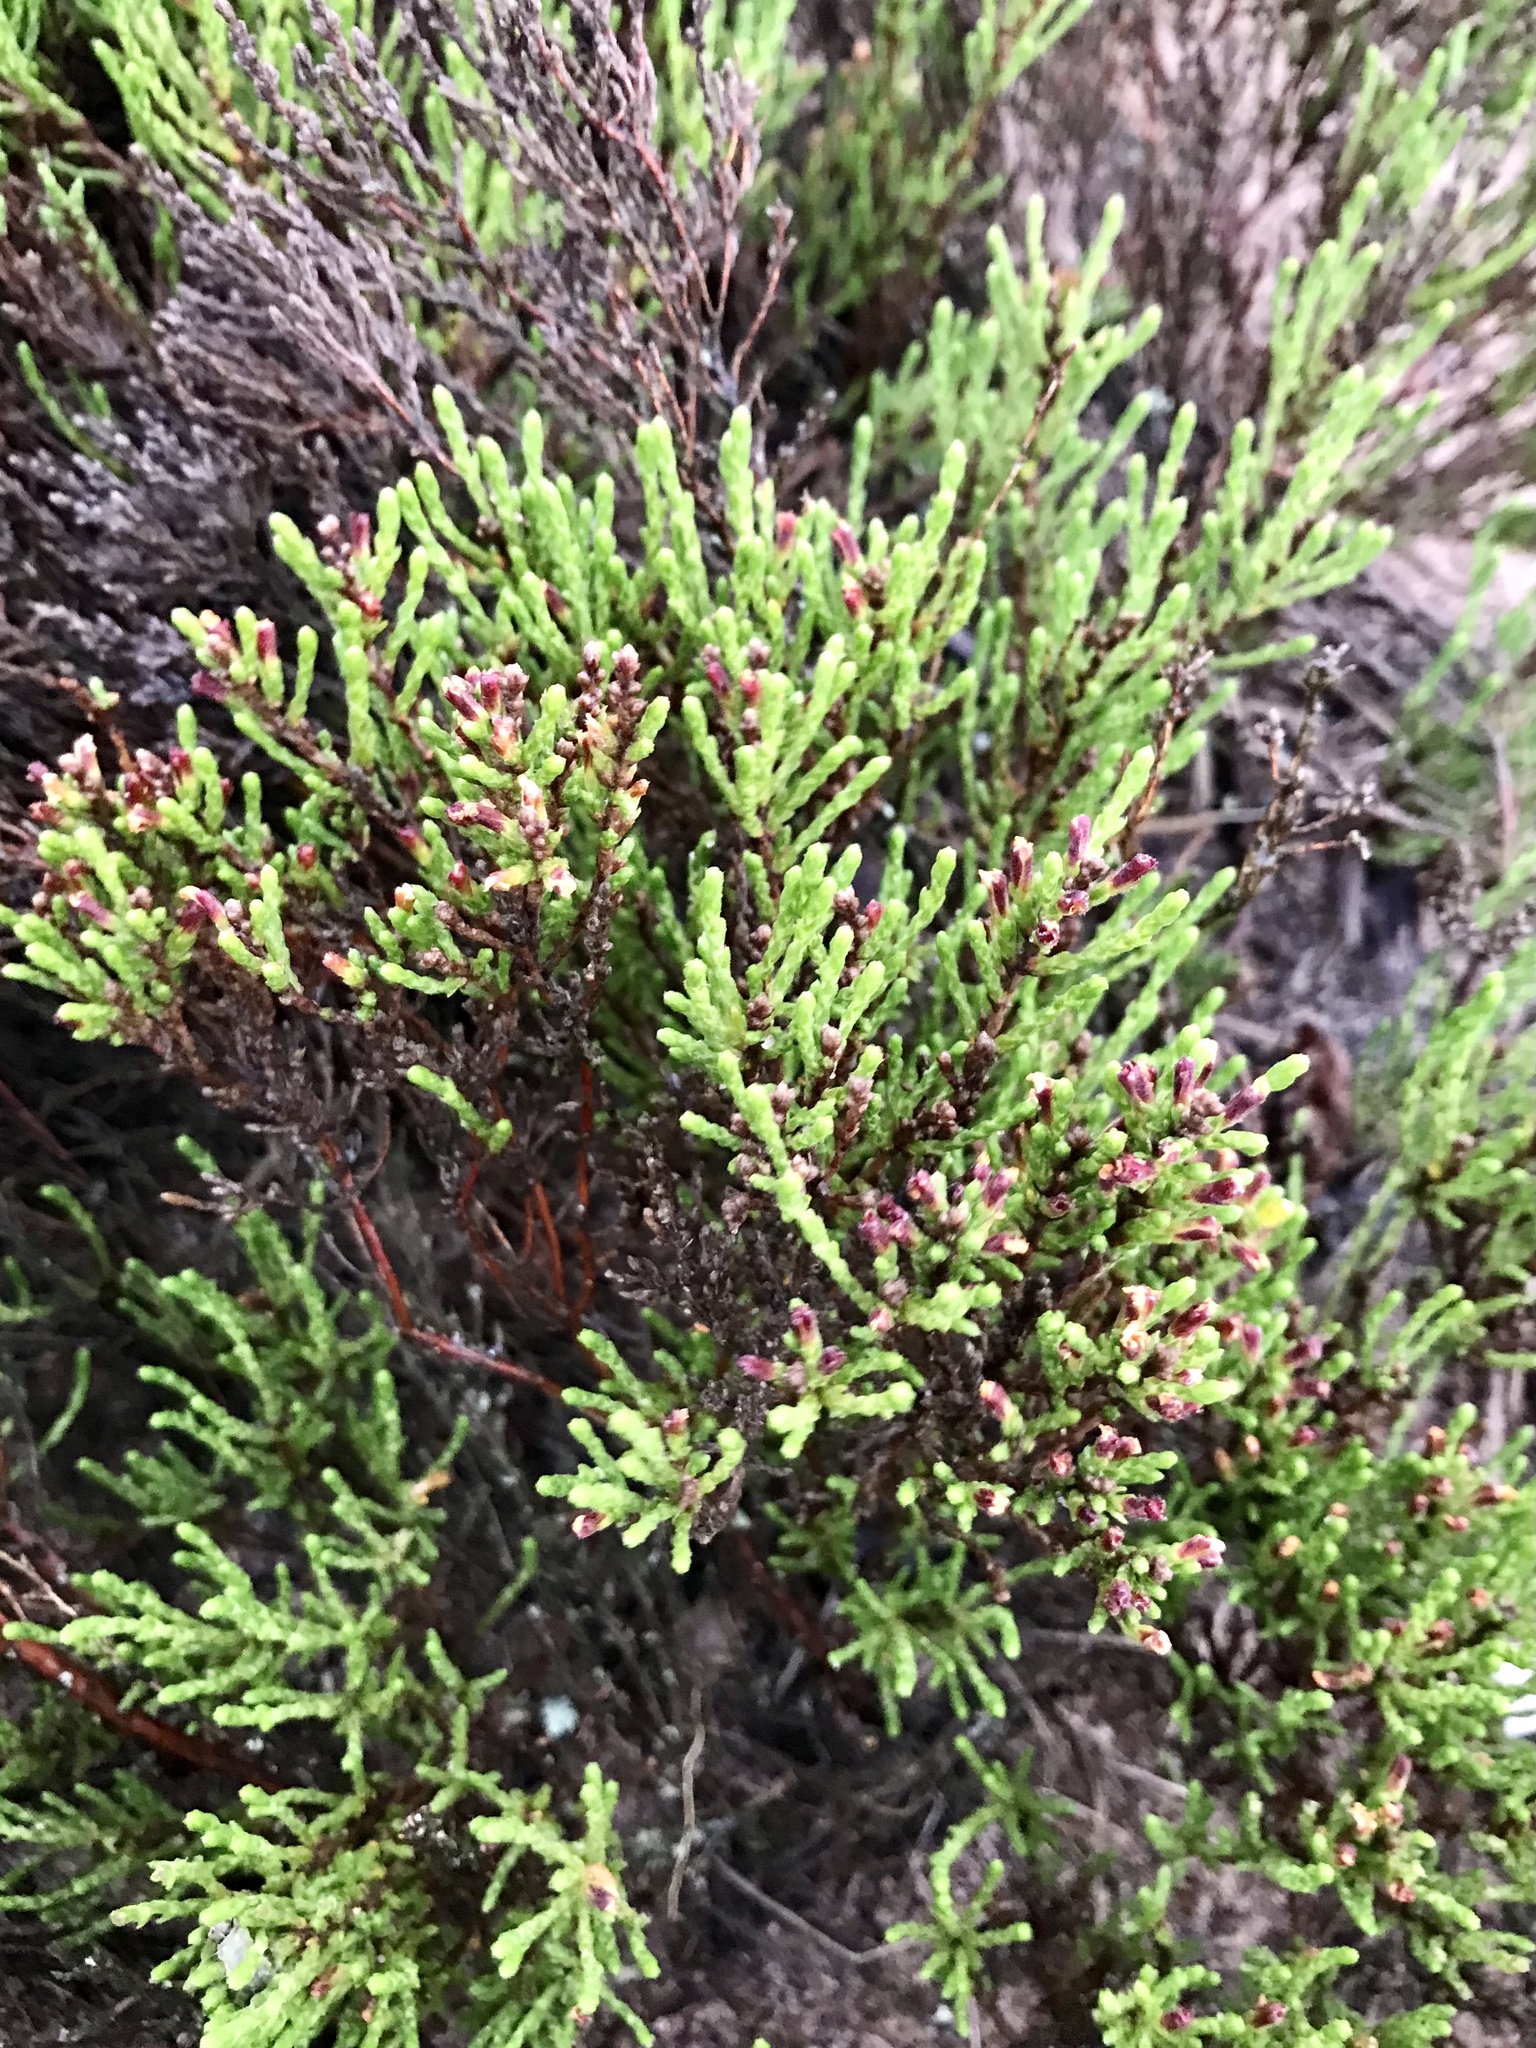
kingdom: Plantae
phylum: Tracheophyta
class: Magnoliopsida
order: Malvales
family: Cistaceae
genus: Hudsonia
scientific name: Hudsonia tomentosa
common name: Beach-heath
